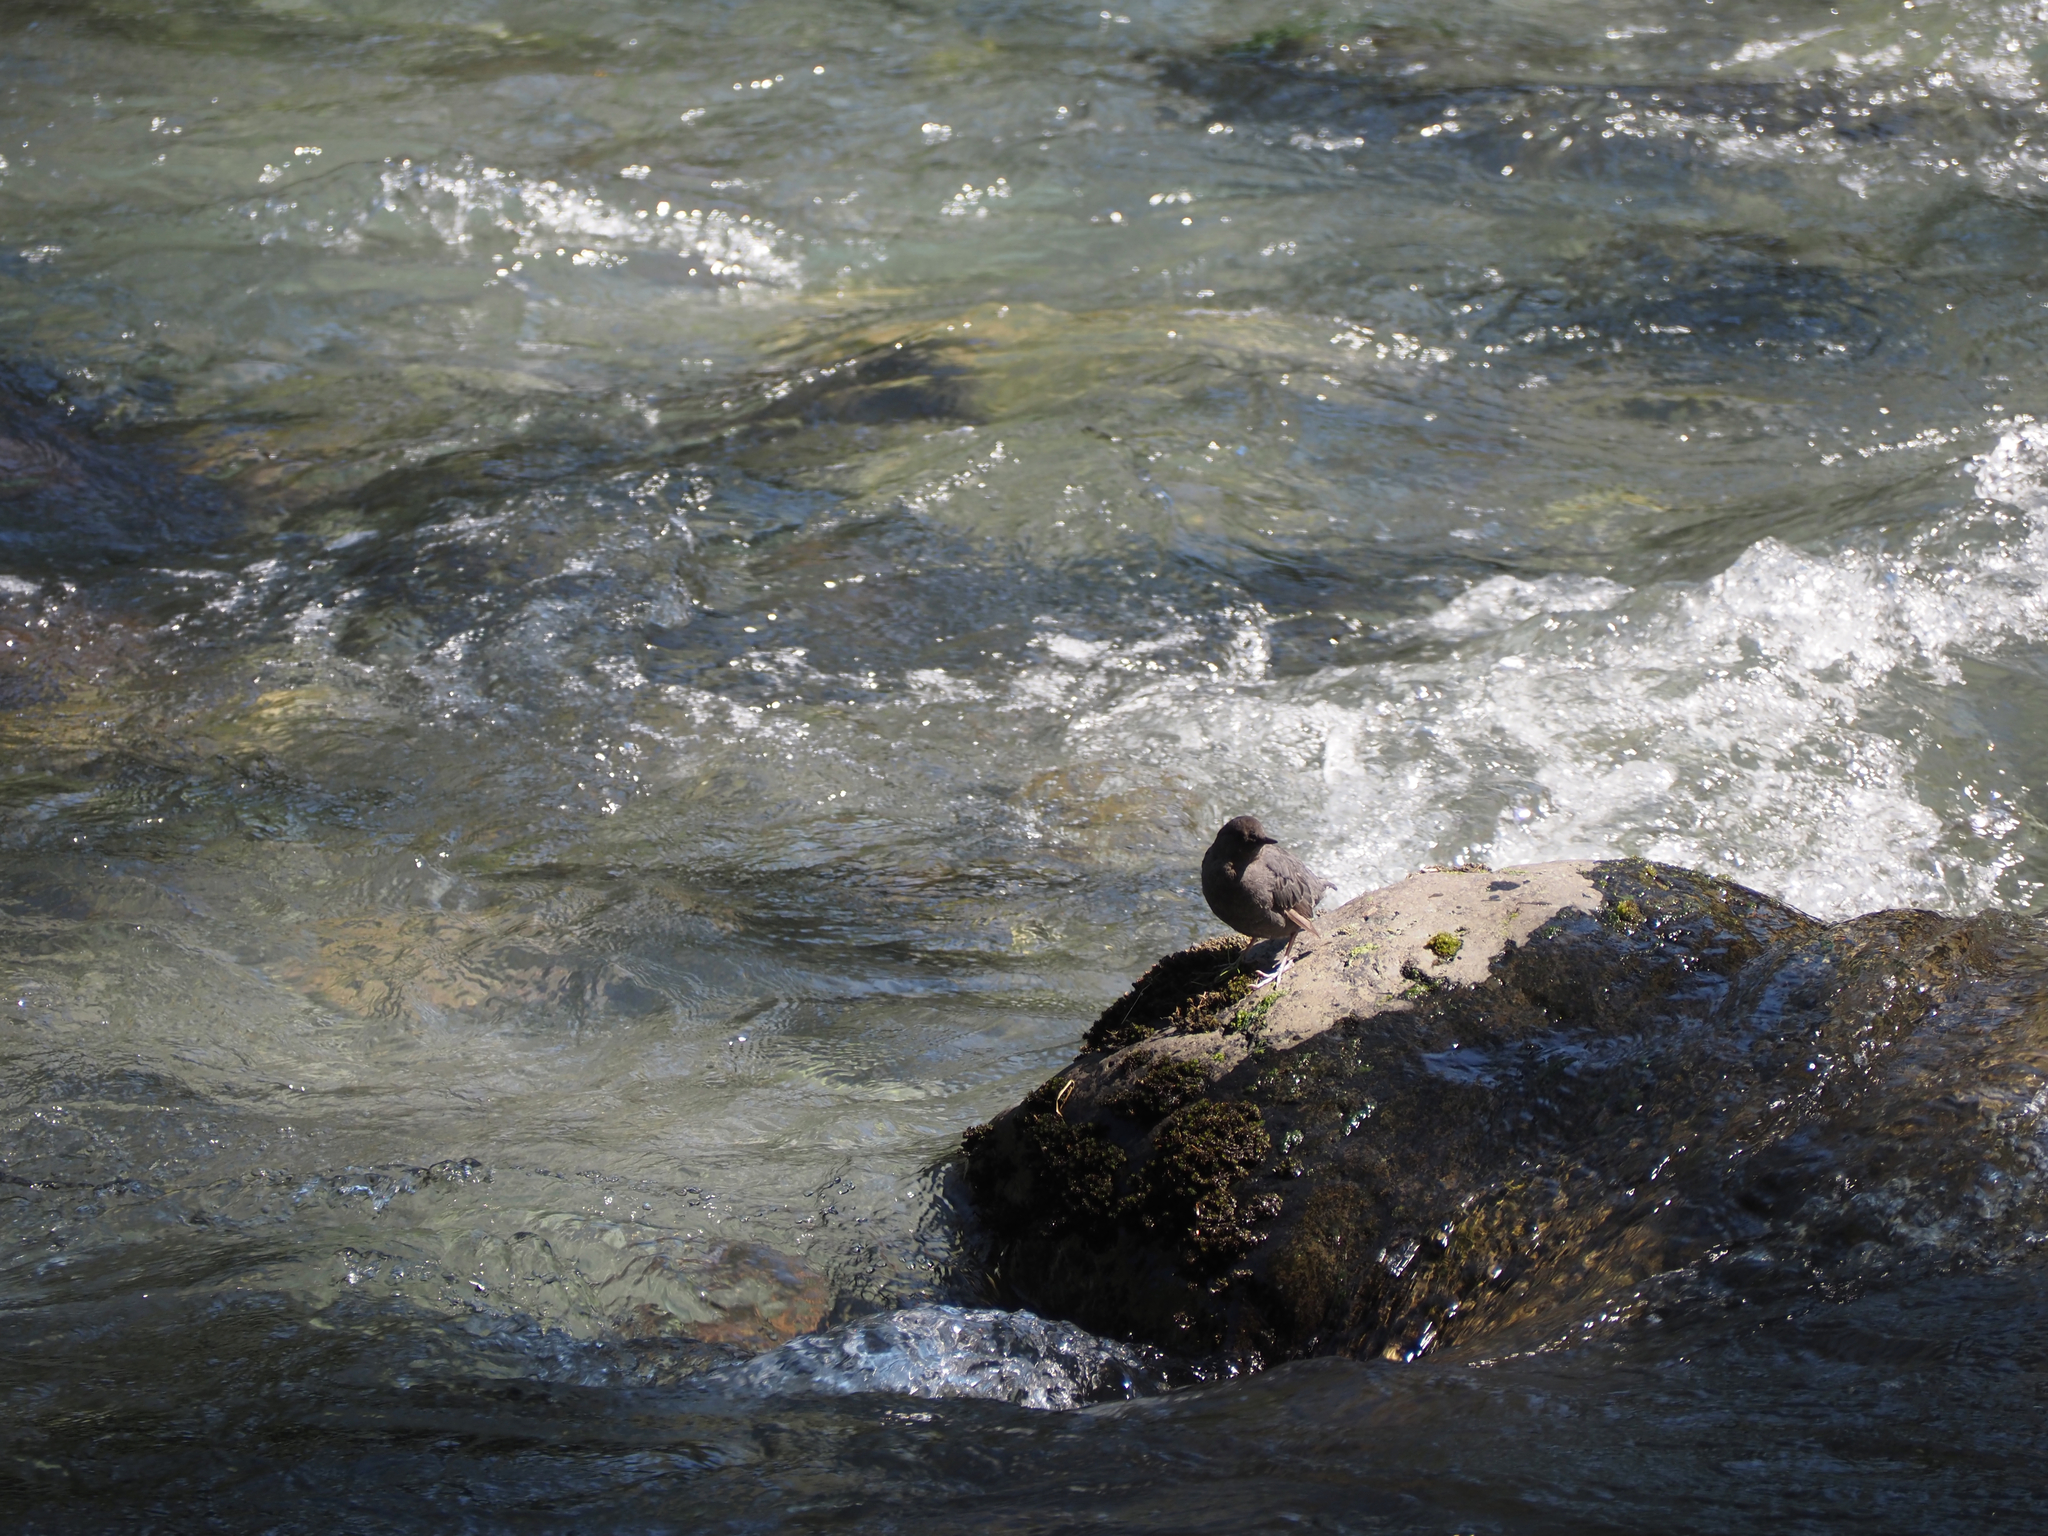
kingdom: Animalia
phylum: Chordata
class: Aves
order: Passeriformes
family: Cinclidae
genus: Cinclus
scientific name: Cinclus mexicanus
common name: American dipper
